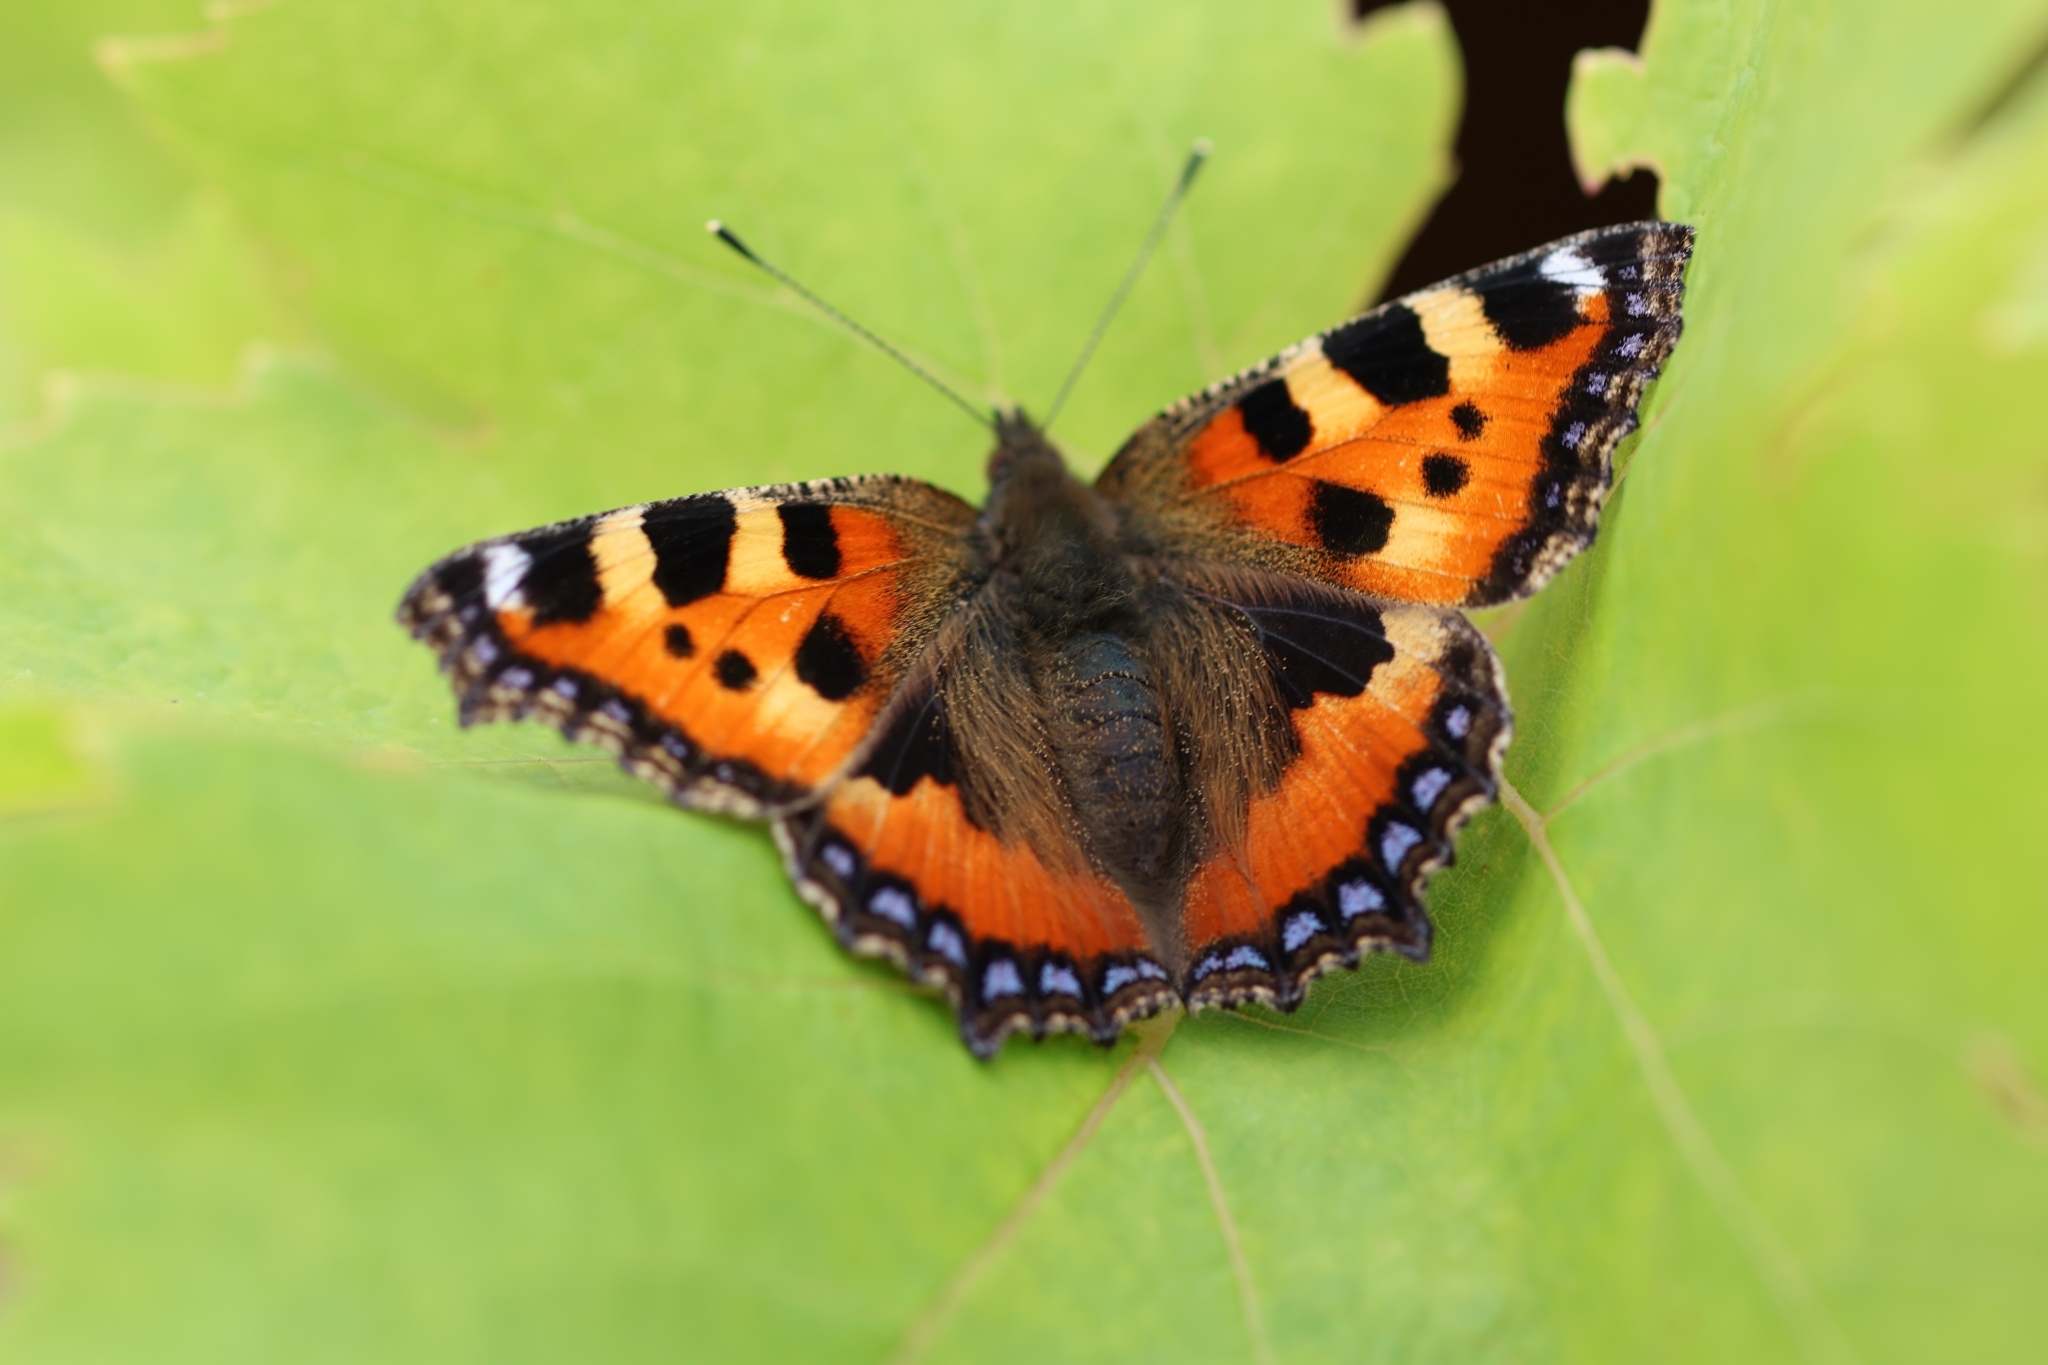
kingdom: Animalia
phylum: Arthropoda
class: Insecta
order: Lepidoptera
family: Nymphalidae
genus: Aglais
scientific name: Aglais urticae
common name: Small tortoiseshell
